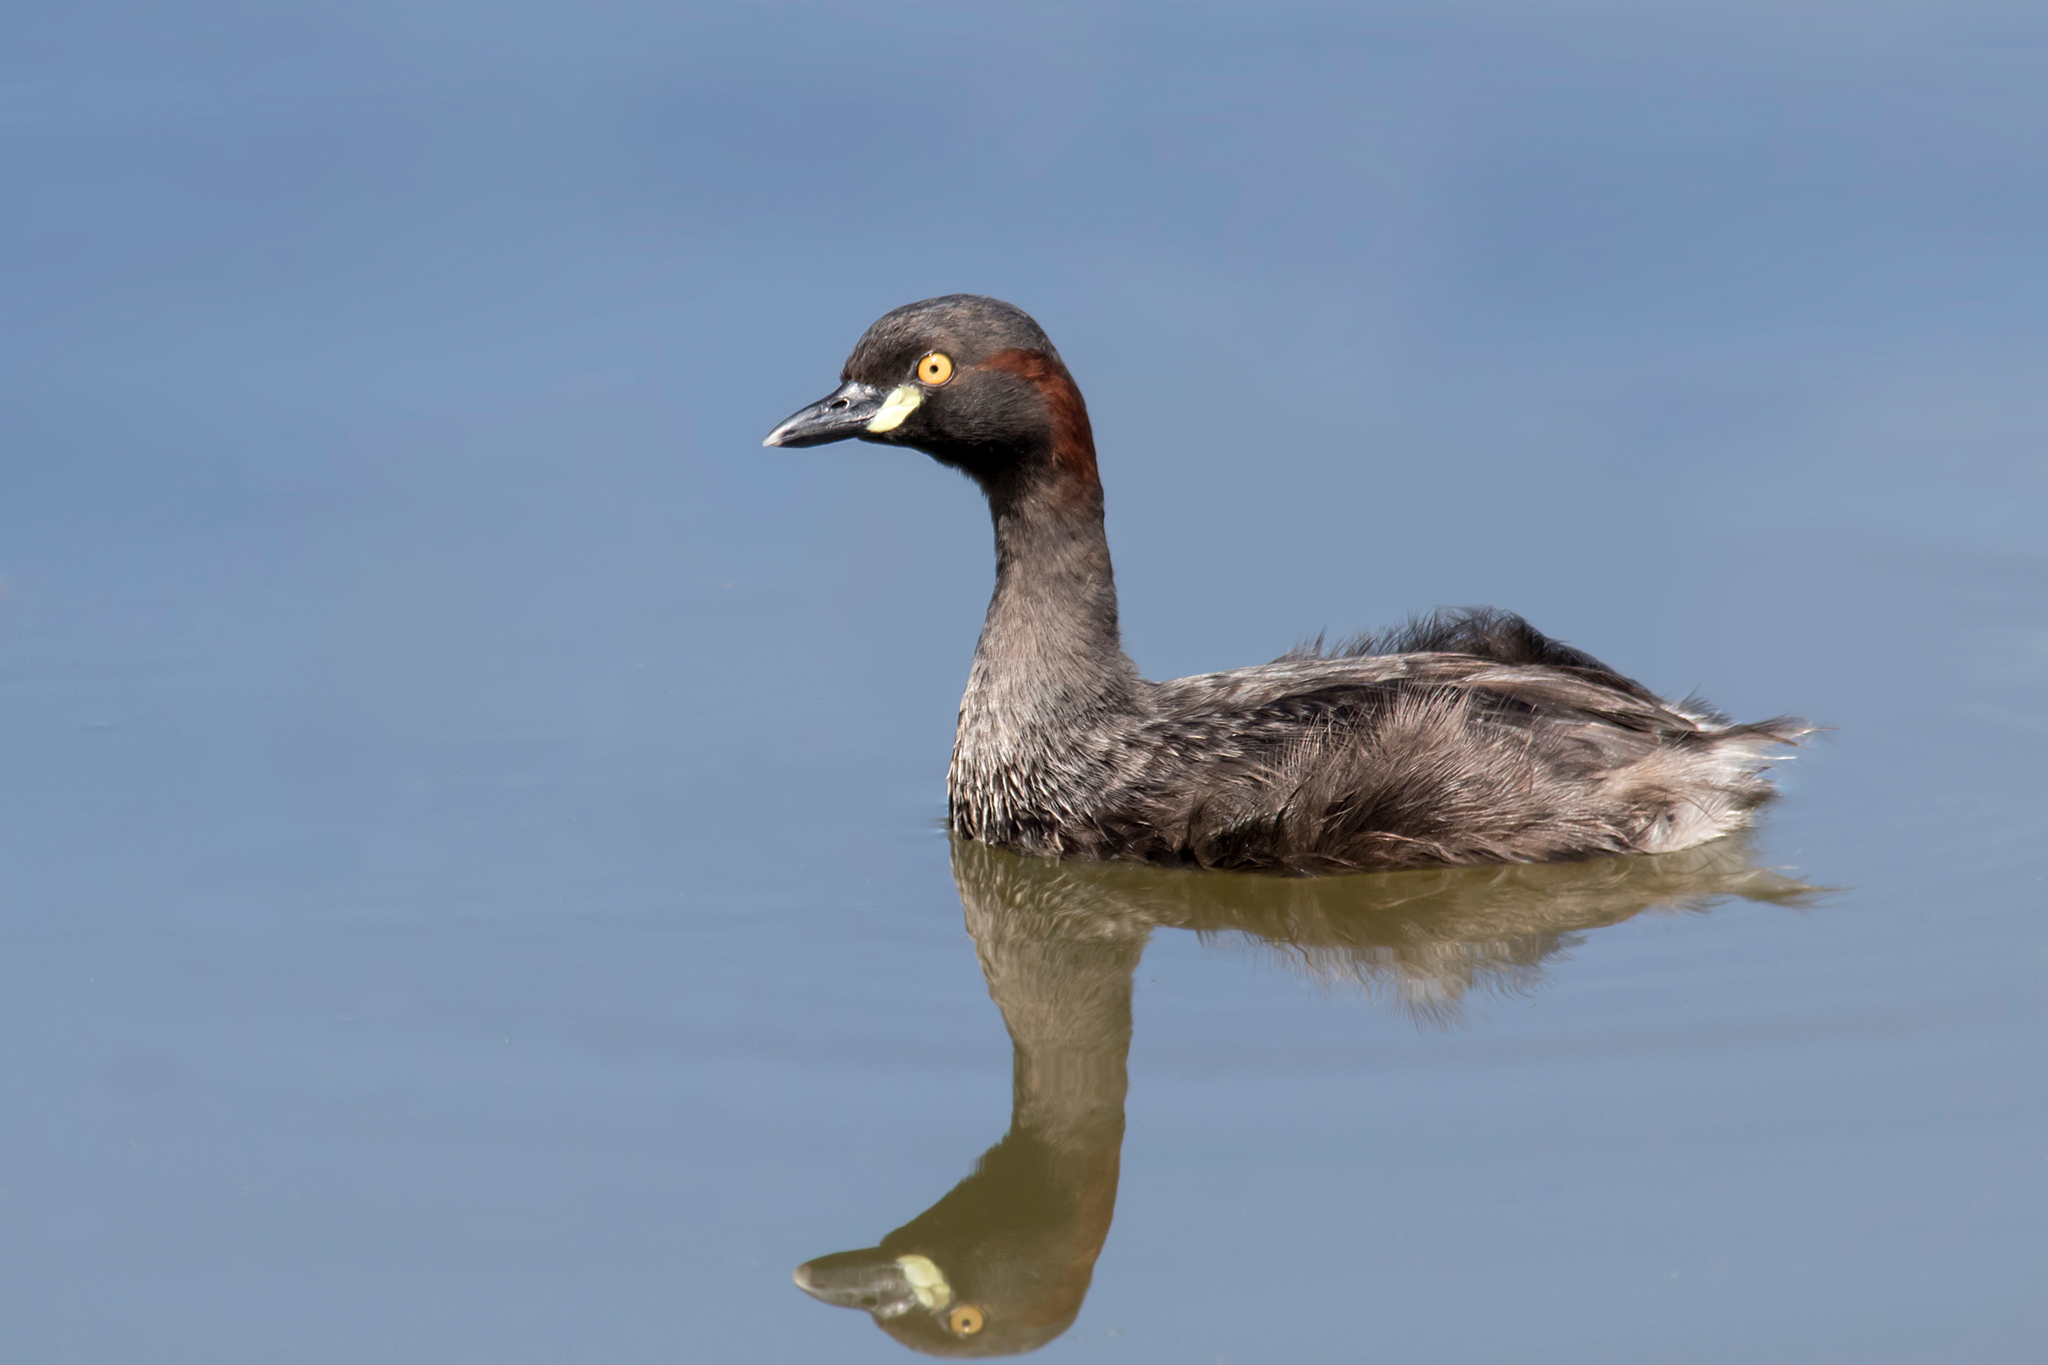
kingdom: Animalia
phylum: Chordata
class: Aves
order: Podicipediformes
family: Podicipedidae
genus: Tachybaptus
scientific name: Tachybaptus novaehollandiae
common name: Australasian grebe
